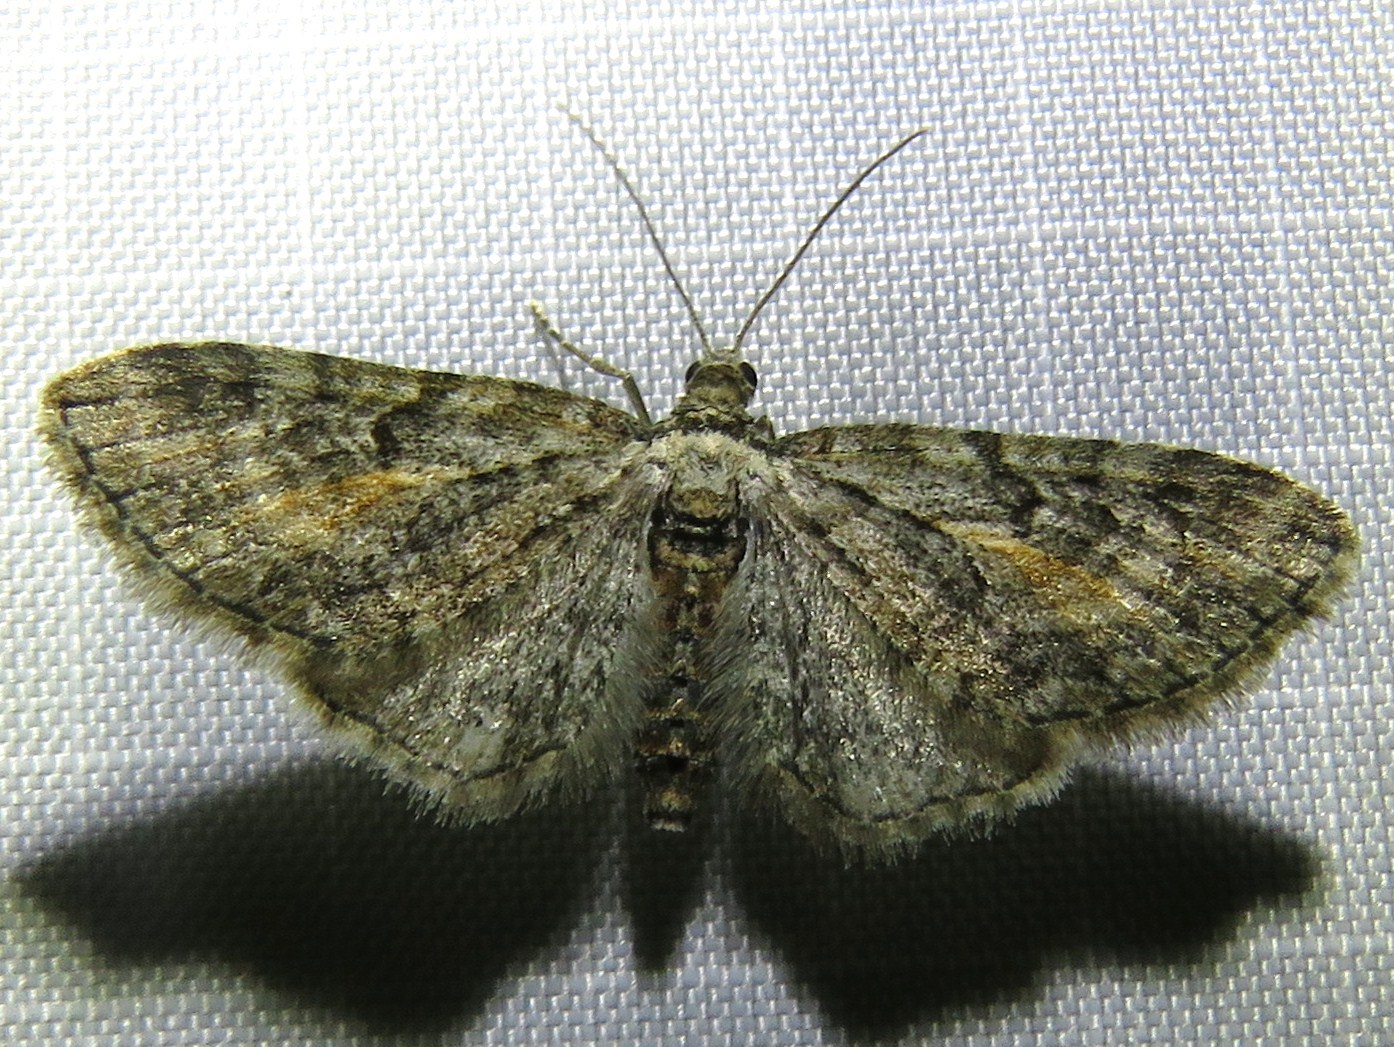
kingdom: Animalia
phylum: Arthropoda
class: Insecta
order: Lepidoptera
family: Geometridae
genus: Eupithecia
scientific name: Eupithecia icterata
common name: Tawny speckled pug
